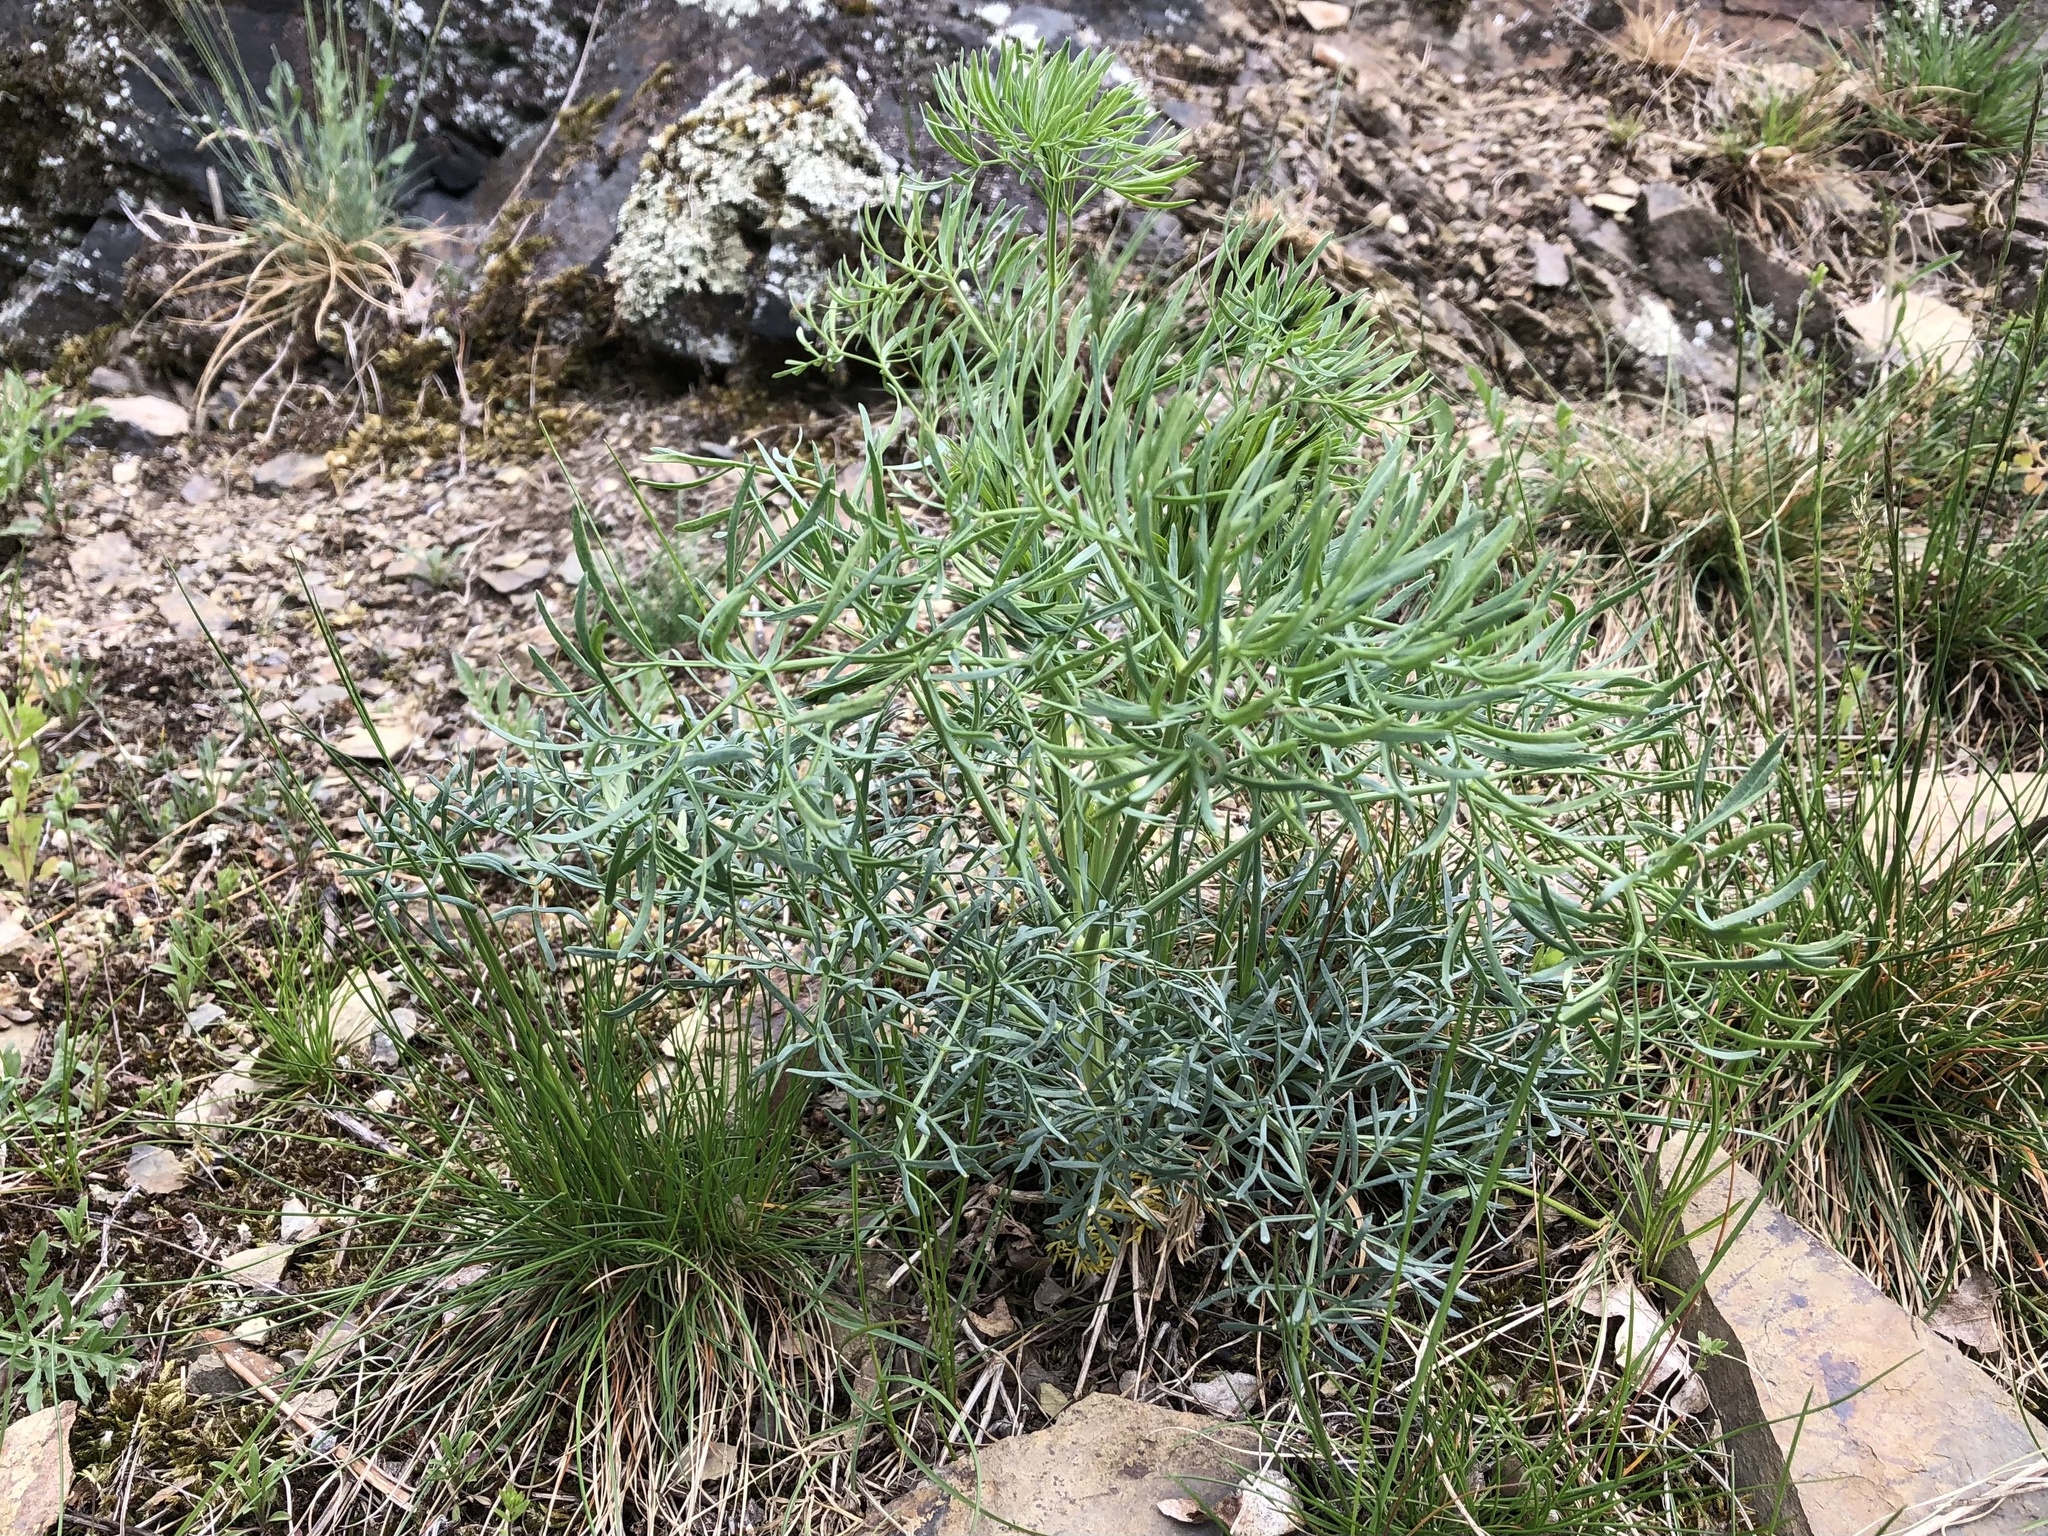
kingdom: Plantae
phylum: Tracheophyta
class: Magnoliopsida
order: Apiales
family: Apiaceae
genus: Seseli
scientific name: Seseli osseum
